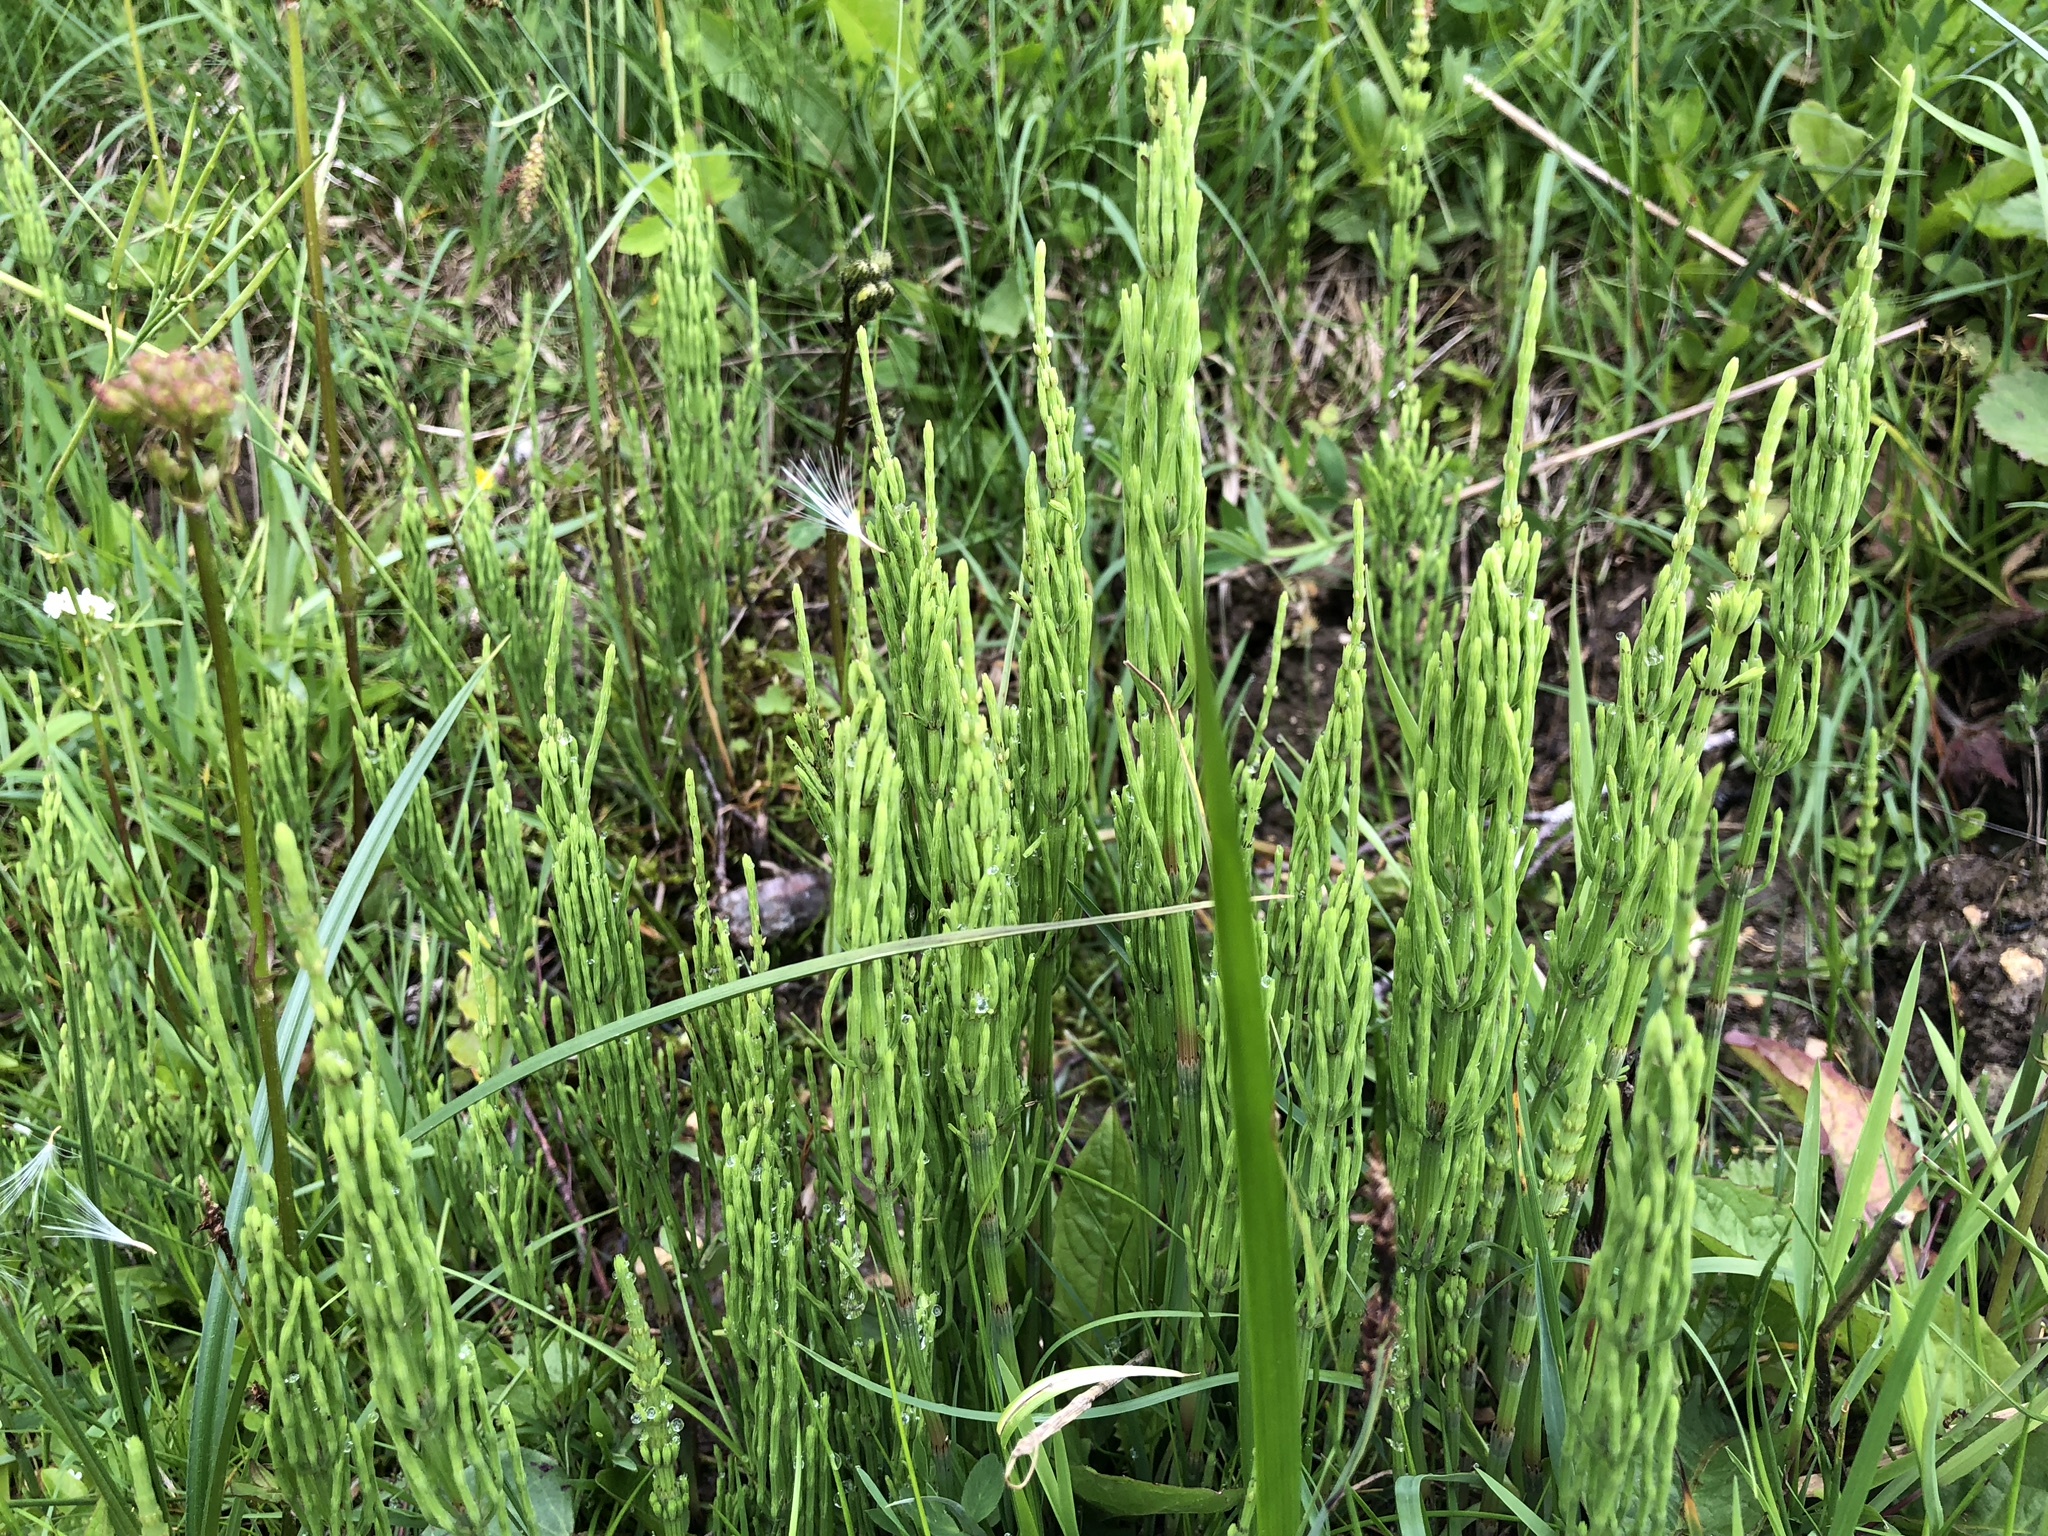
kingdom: Plantae
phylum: Tracheophyta
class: Polypodiopsida
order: Equisetales
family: Equisetaceae
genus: Equisetum
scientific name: Equisetum arvense
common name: Field horsetail
